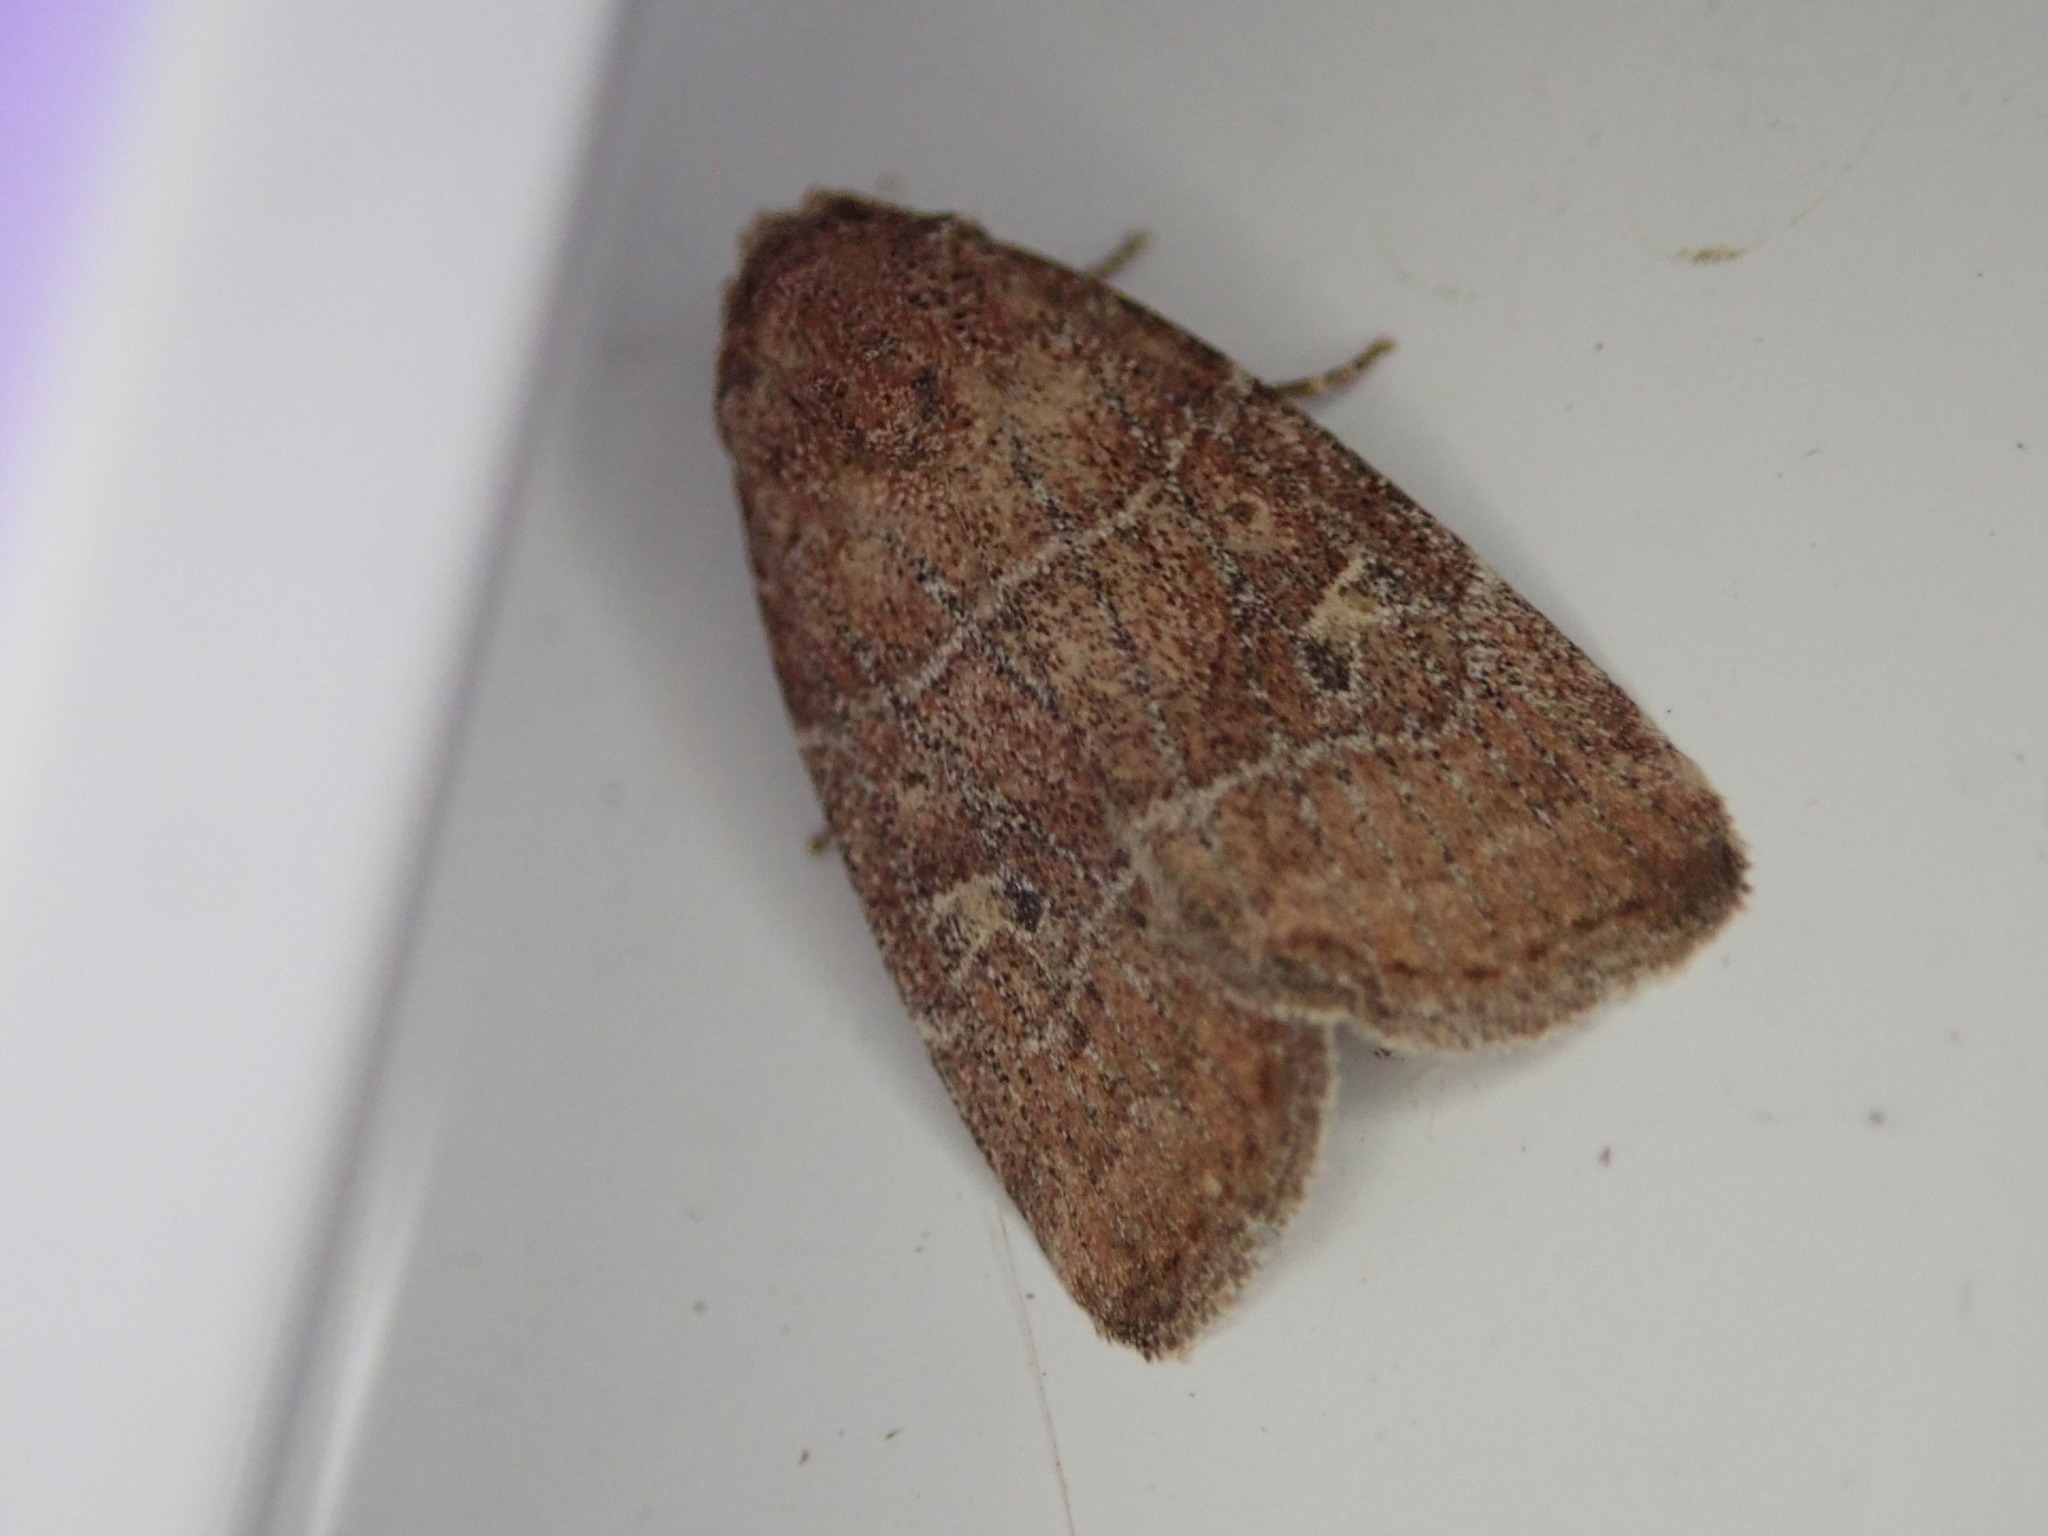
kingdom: Animalia
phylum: Arthropoda
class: Insecta
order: Lepidoptera
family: Noctuidae
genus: Elaphria
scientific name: Elaphria grata
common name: Grateful midget moth
